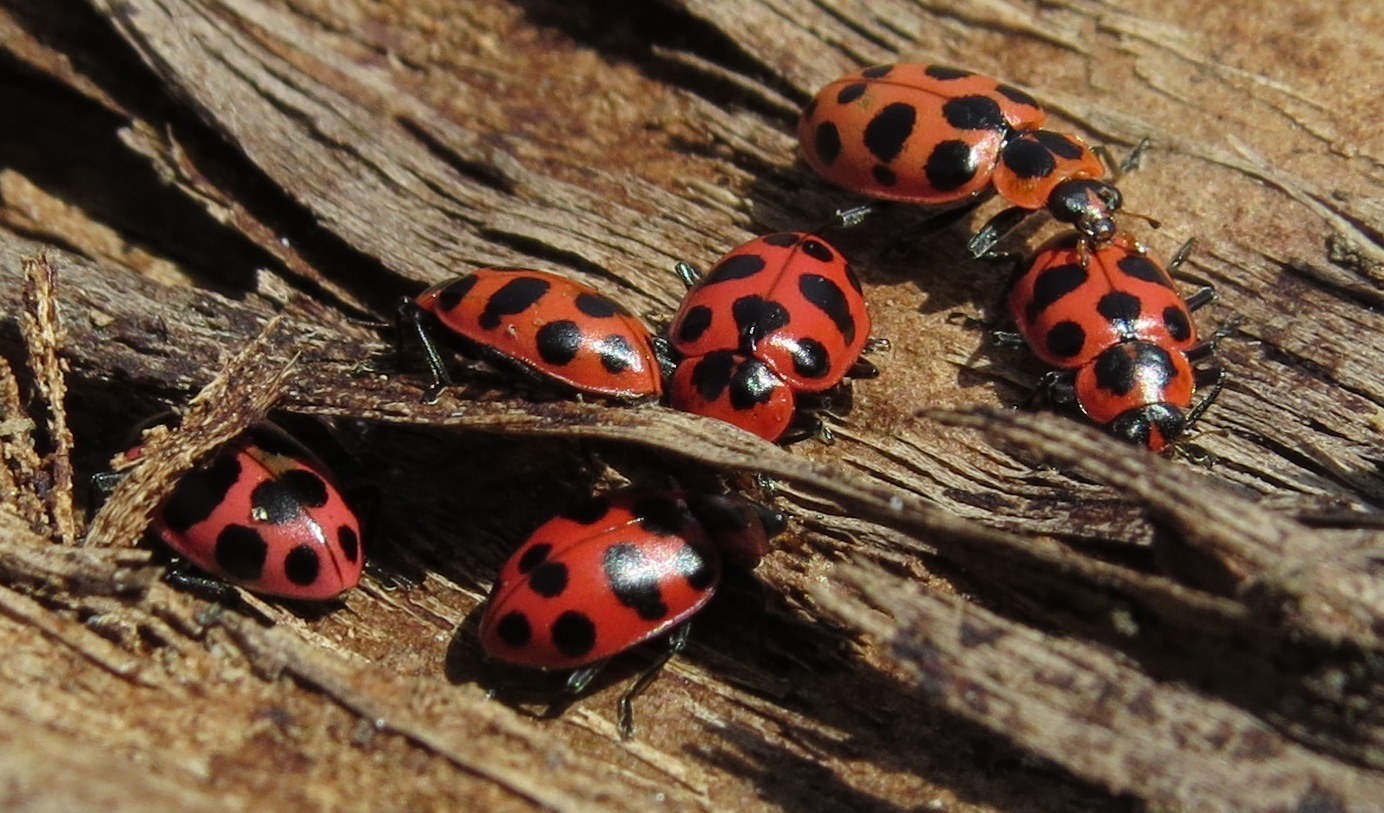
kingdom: Animalia
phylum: Arthropoda
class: Insecta
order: Coleoptera
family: Coccinellidae
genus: Coleomegilla
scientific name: Coleomegilla maculata
